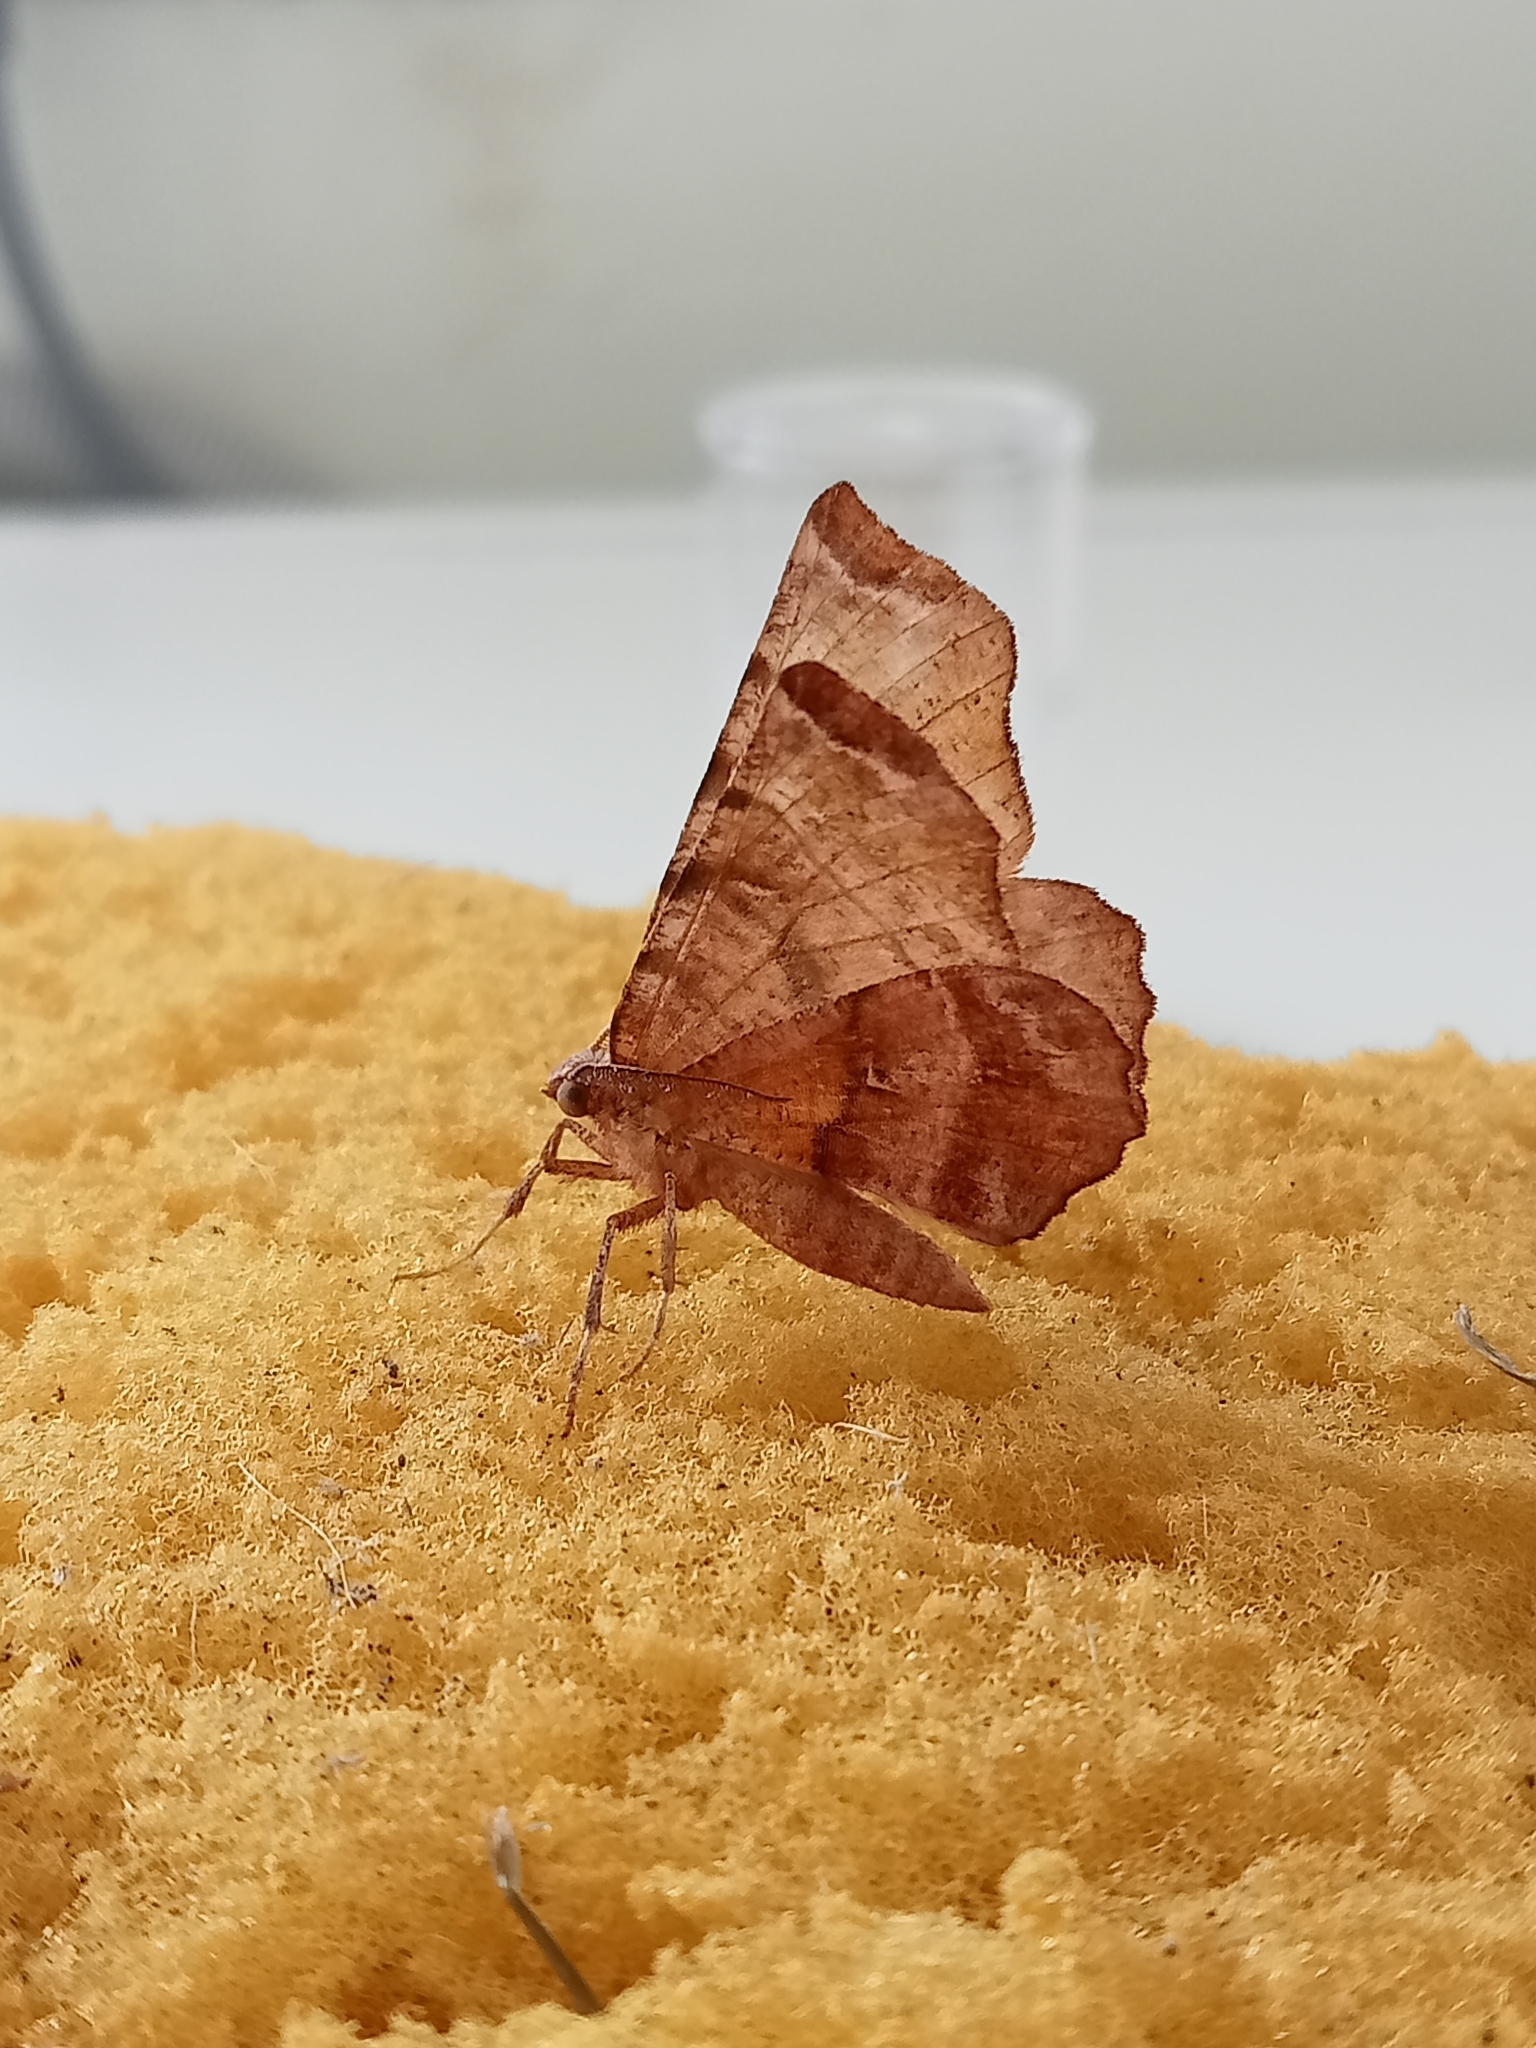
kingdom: Animalia
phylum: Arthropoda
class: Insecta
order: Lepidoptera
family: Geometridae
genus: Selenia
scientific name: Selenia dentaria
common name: Early thorn
